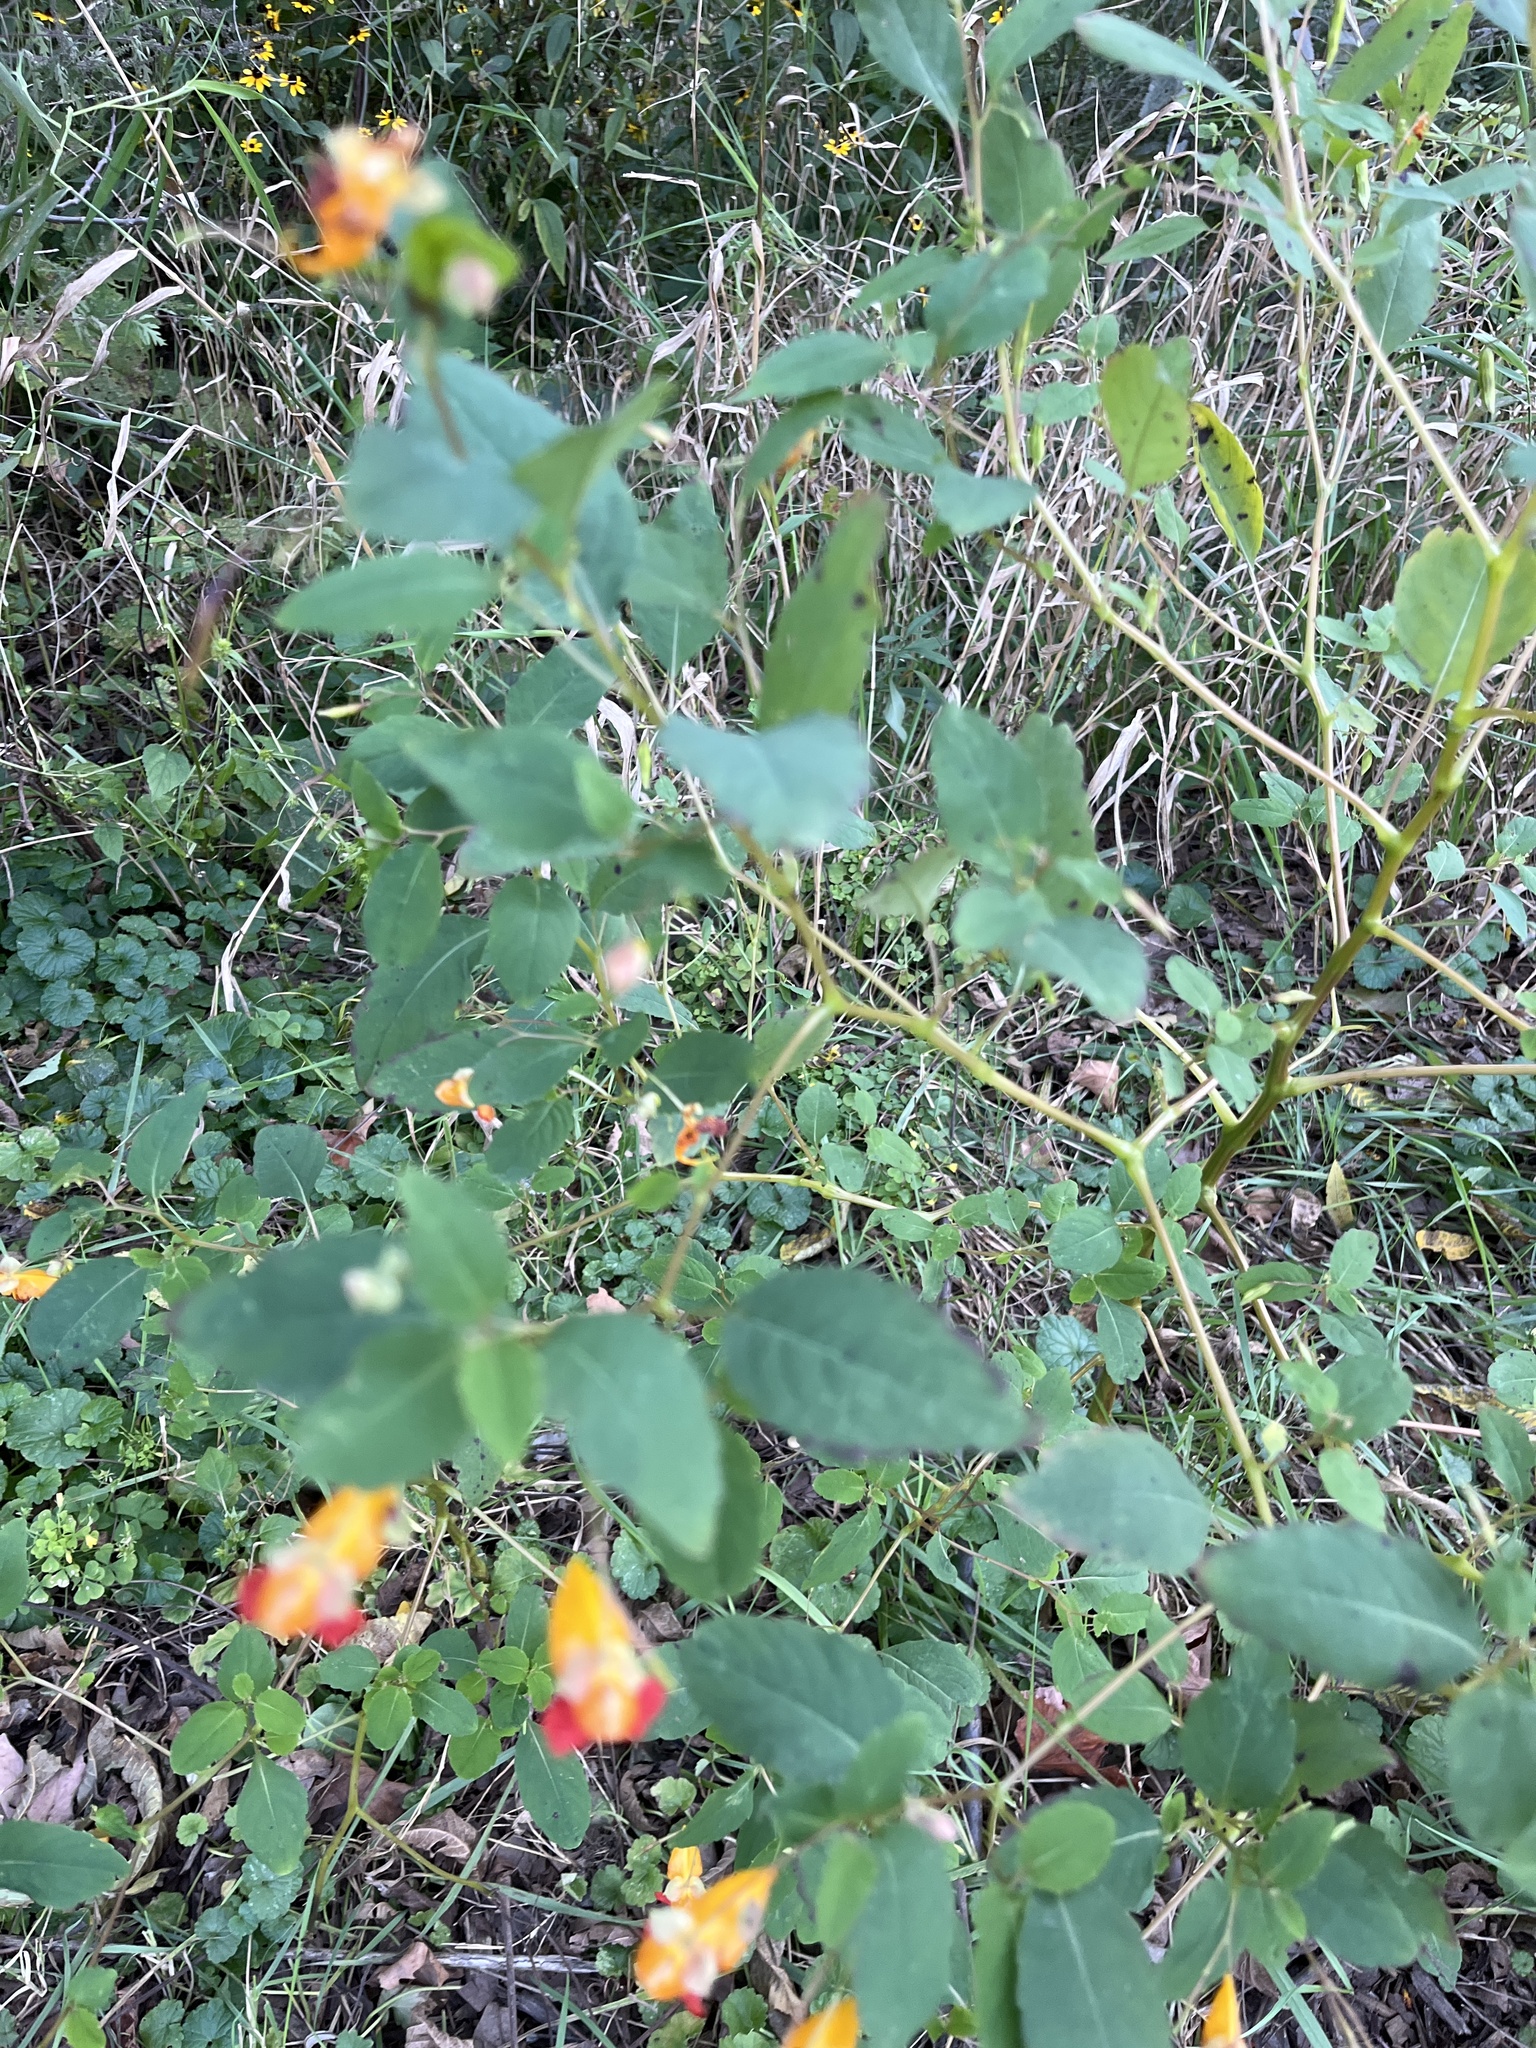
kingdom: Plantae
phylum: Tracheophyta
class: Magnoliopsida
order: Ericales
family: Balsaminaceae
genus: Impatiens
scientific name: Impatiens capensis
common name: Orange balsam
